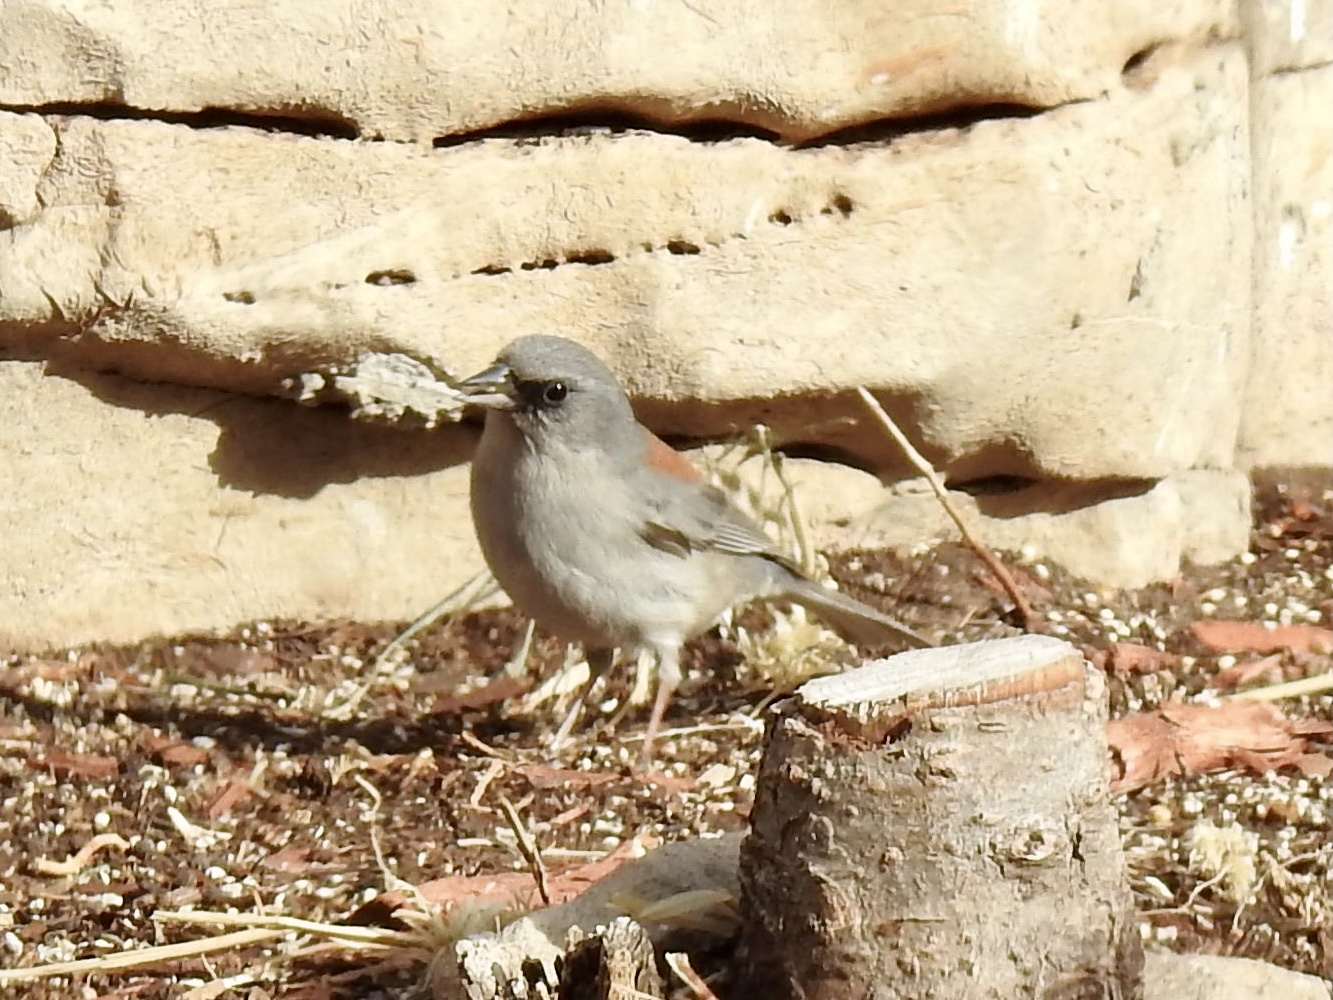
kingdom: Animalia
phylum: Chordata
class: Aves
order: Passeriformes
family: Passerellidae
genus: Junco
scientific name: Junco hyemalis
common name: Dark-eyed junco
